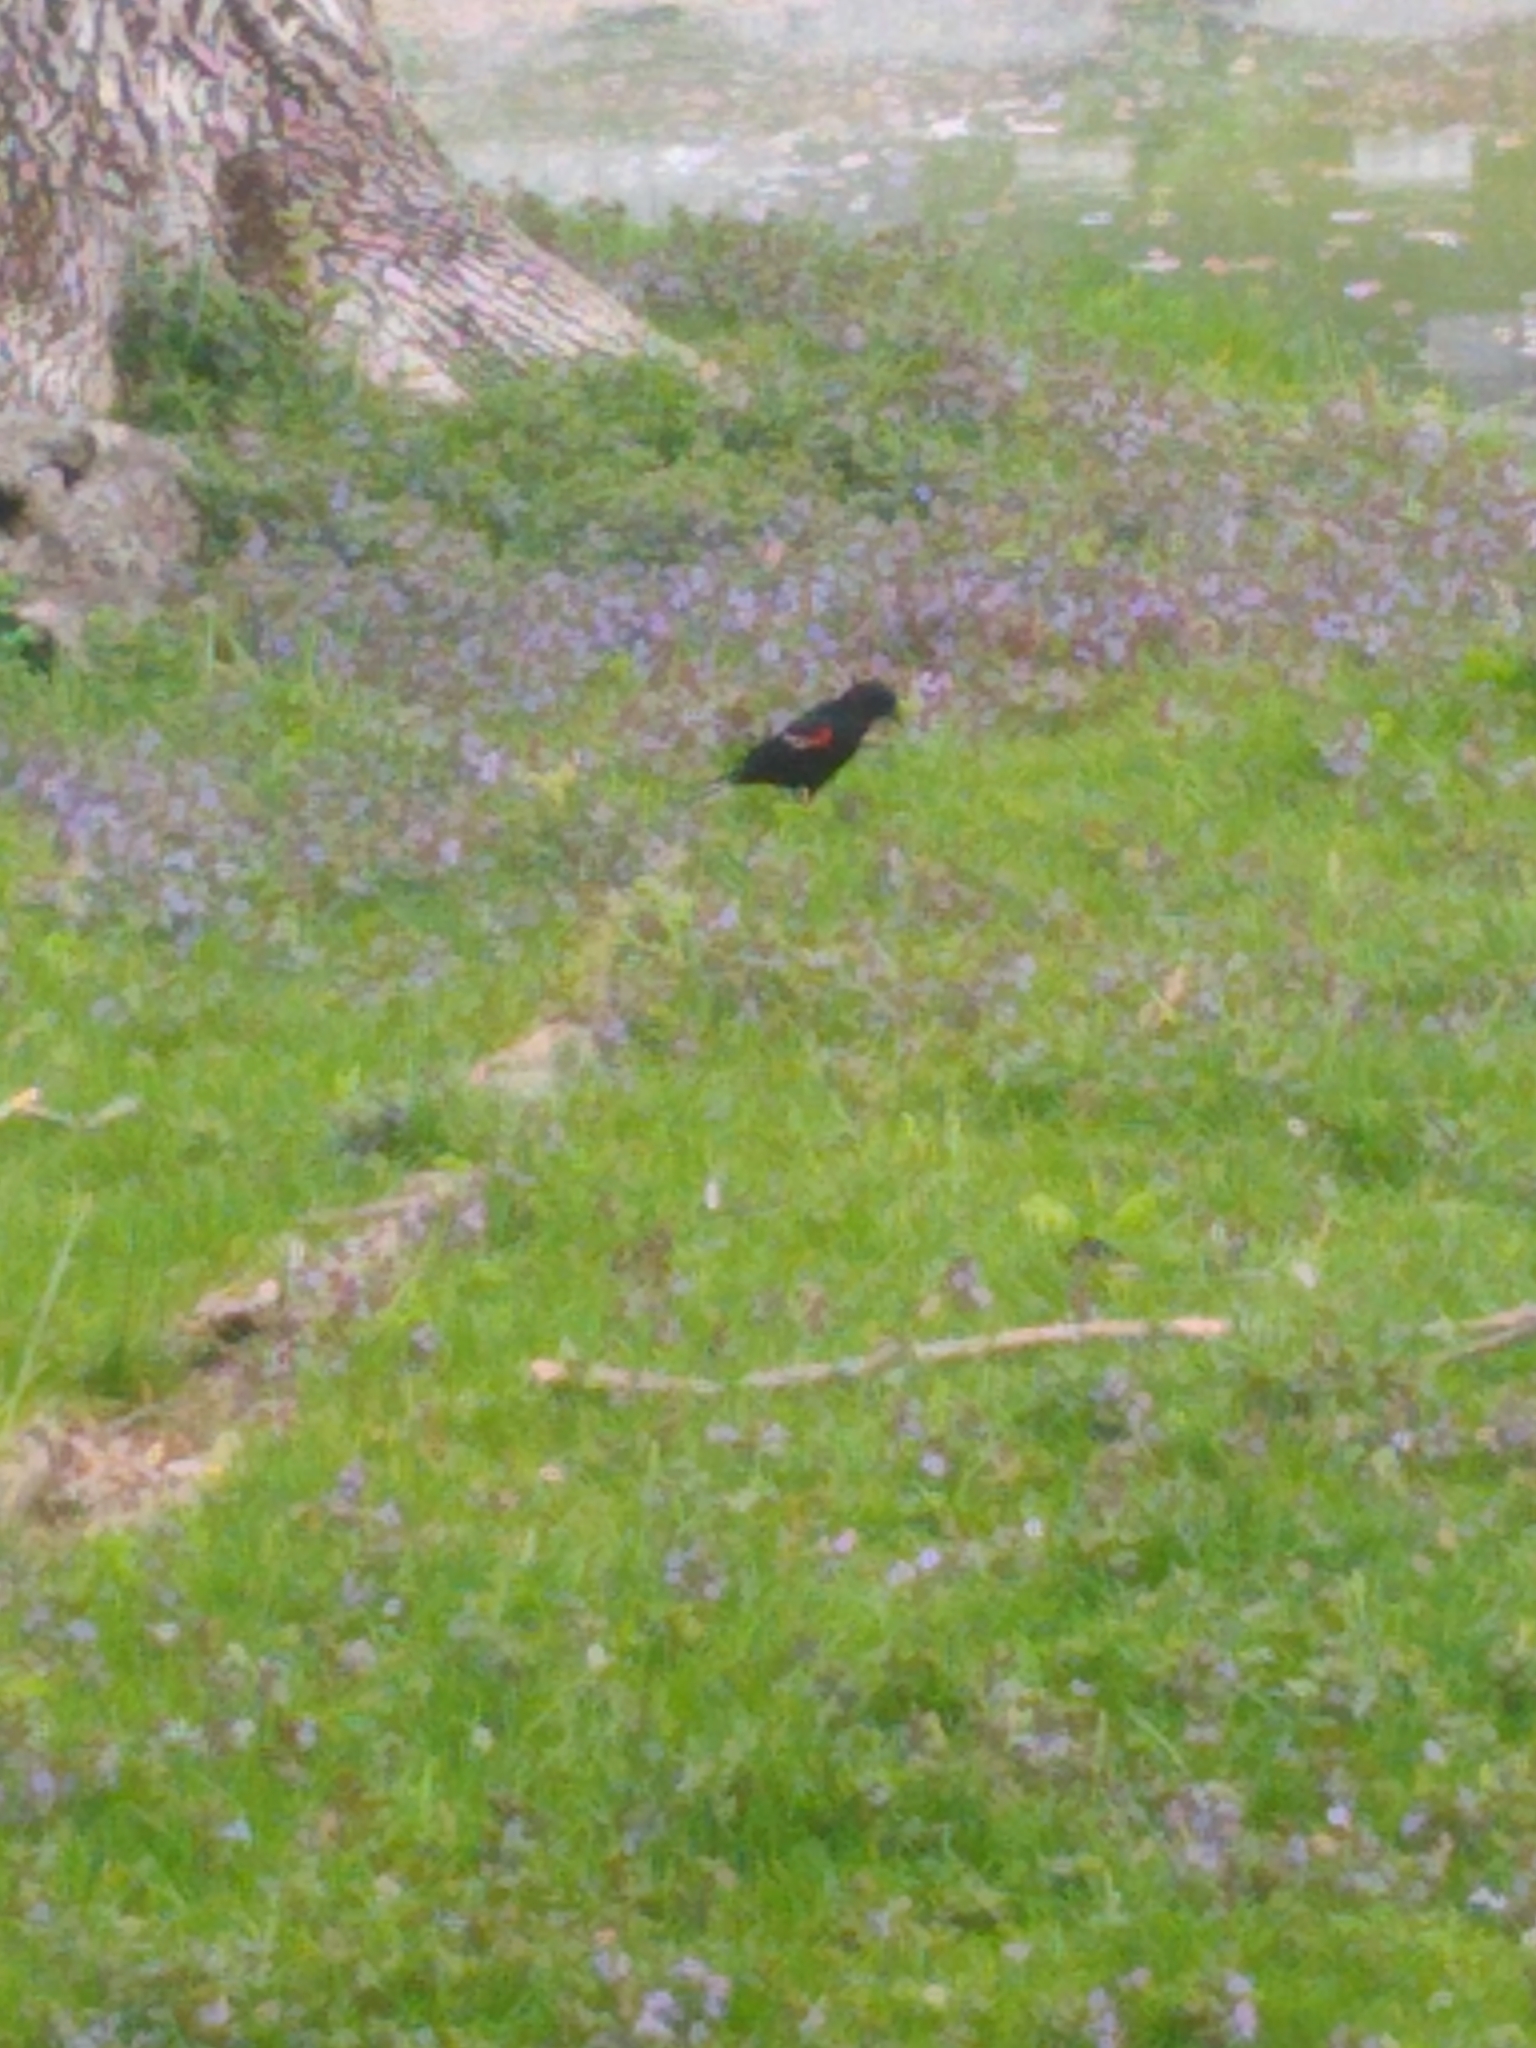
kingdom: Animalia
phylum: Chordata
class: Aves
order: Passeriformes
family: Icteridae
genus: Agelaius
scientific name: Agelaius phoeniceus
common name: Red-winged blackbird
